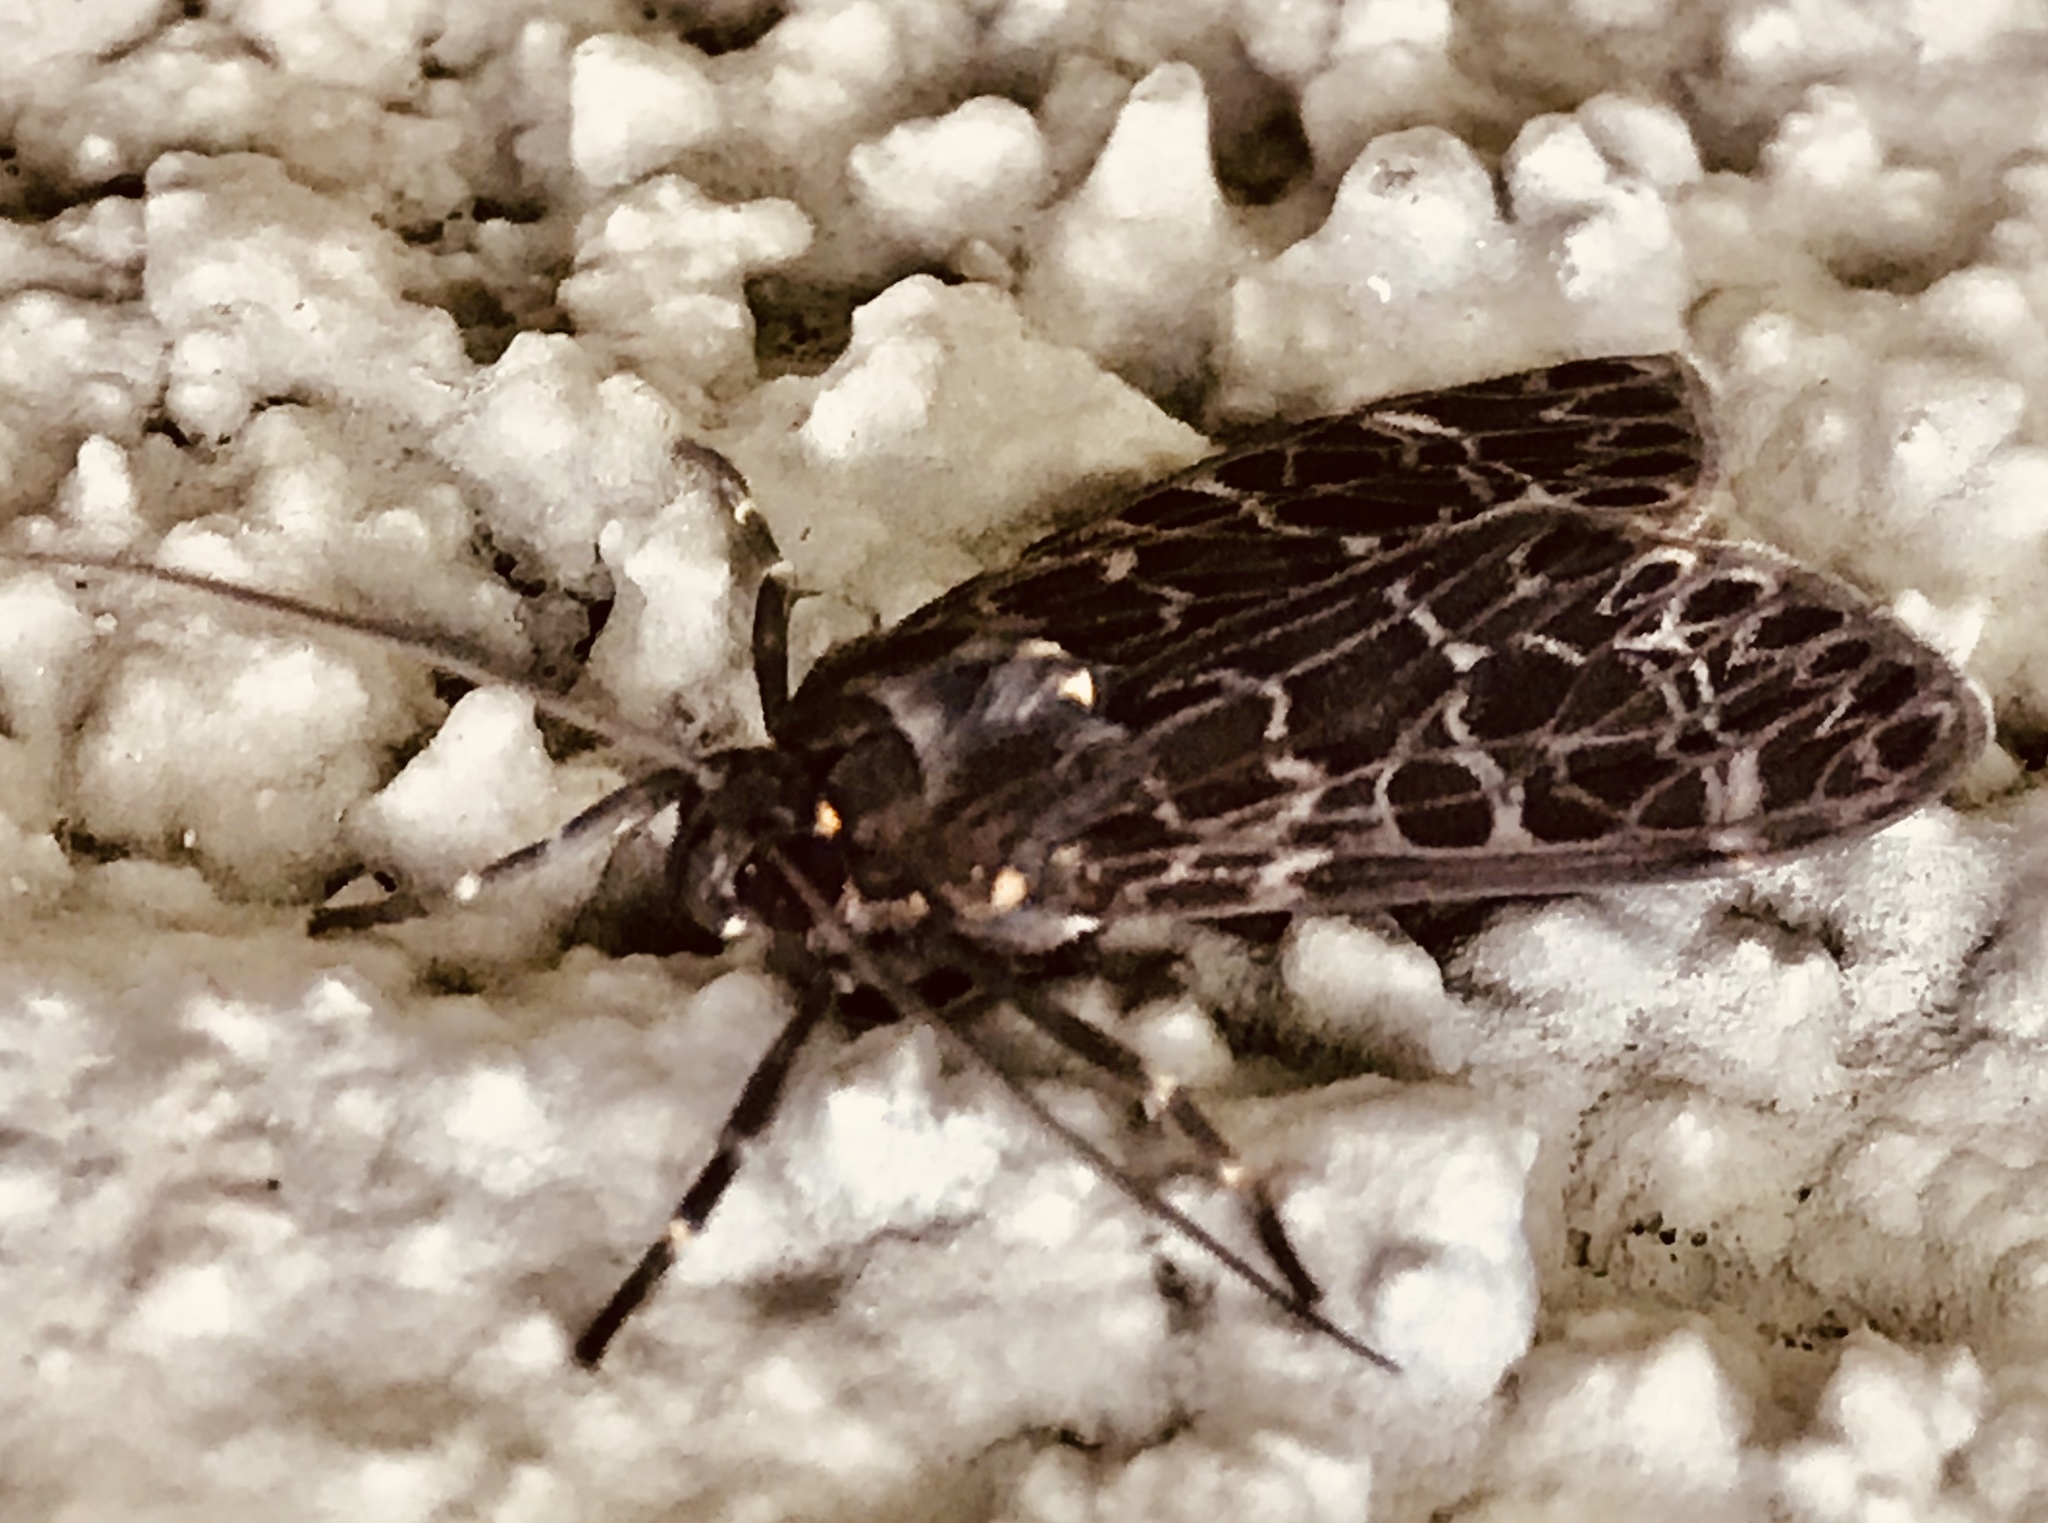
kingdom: Animalia
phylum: Arthropoda
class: Insecta
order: Lepidoptera
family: Erebidae
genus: Eucereon
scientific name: Eucereon sylvius
